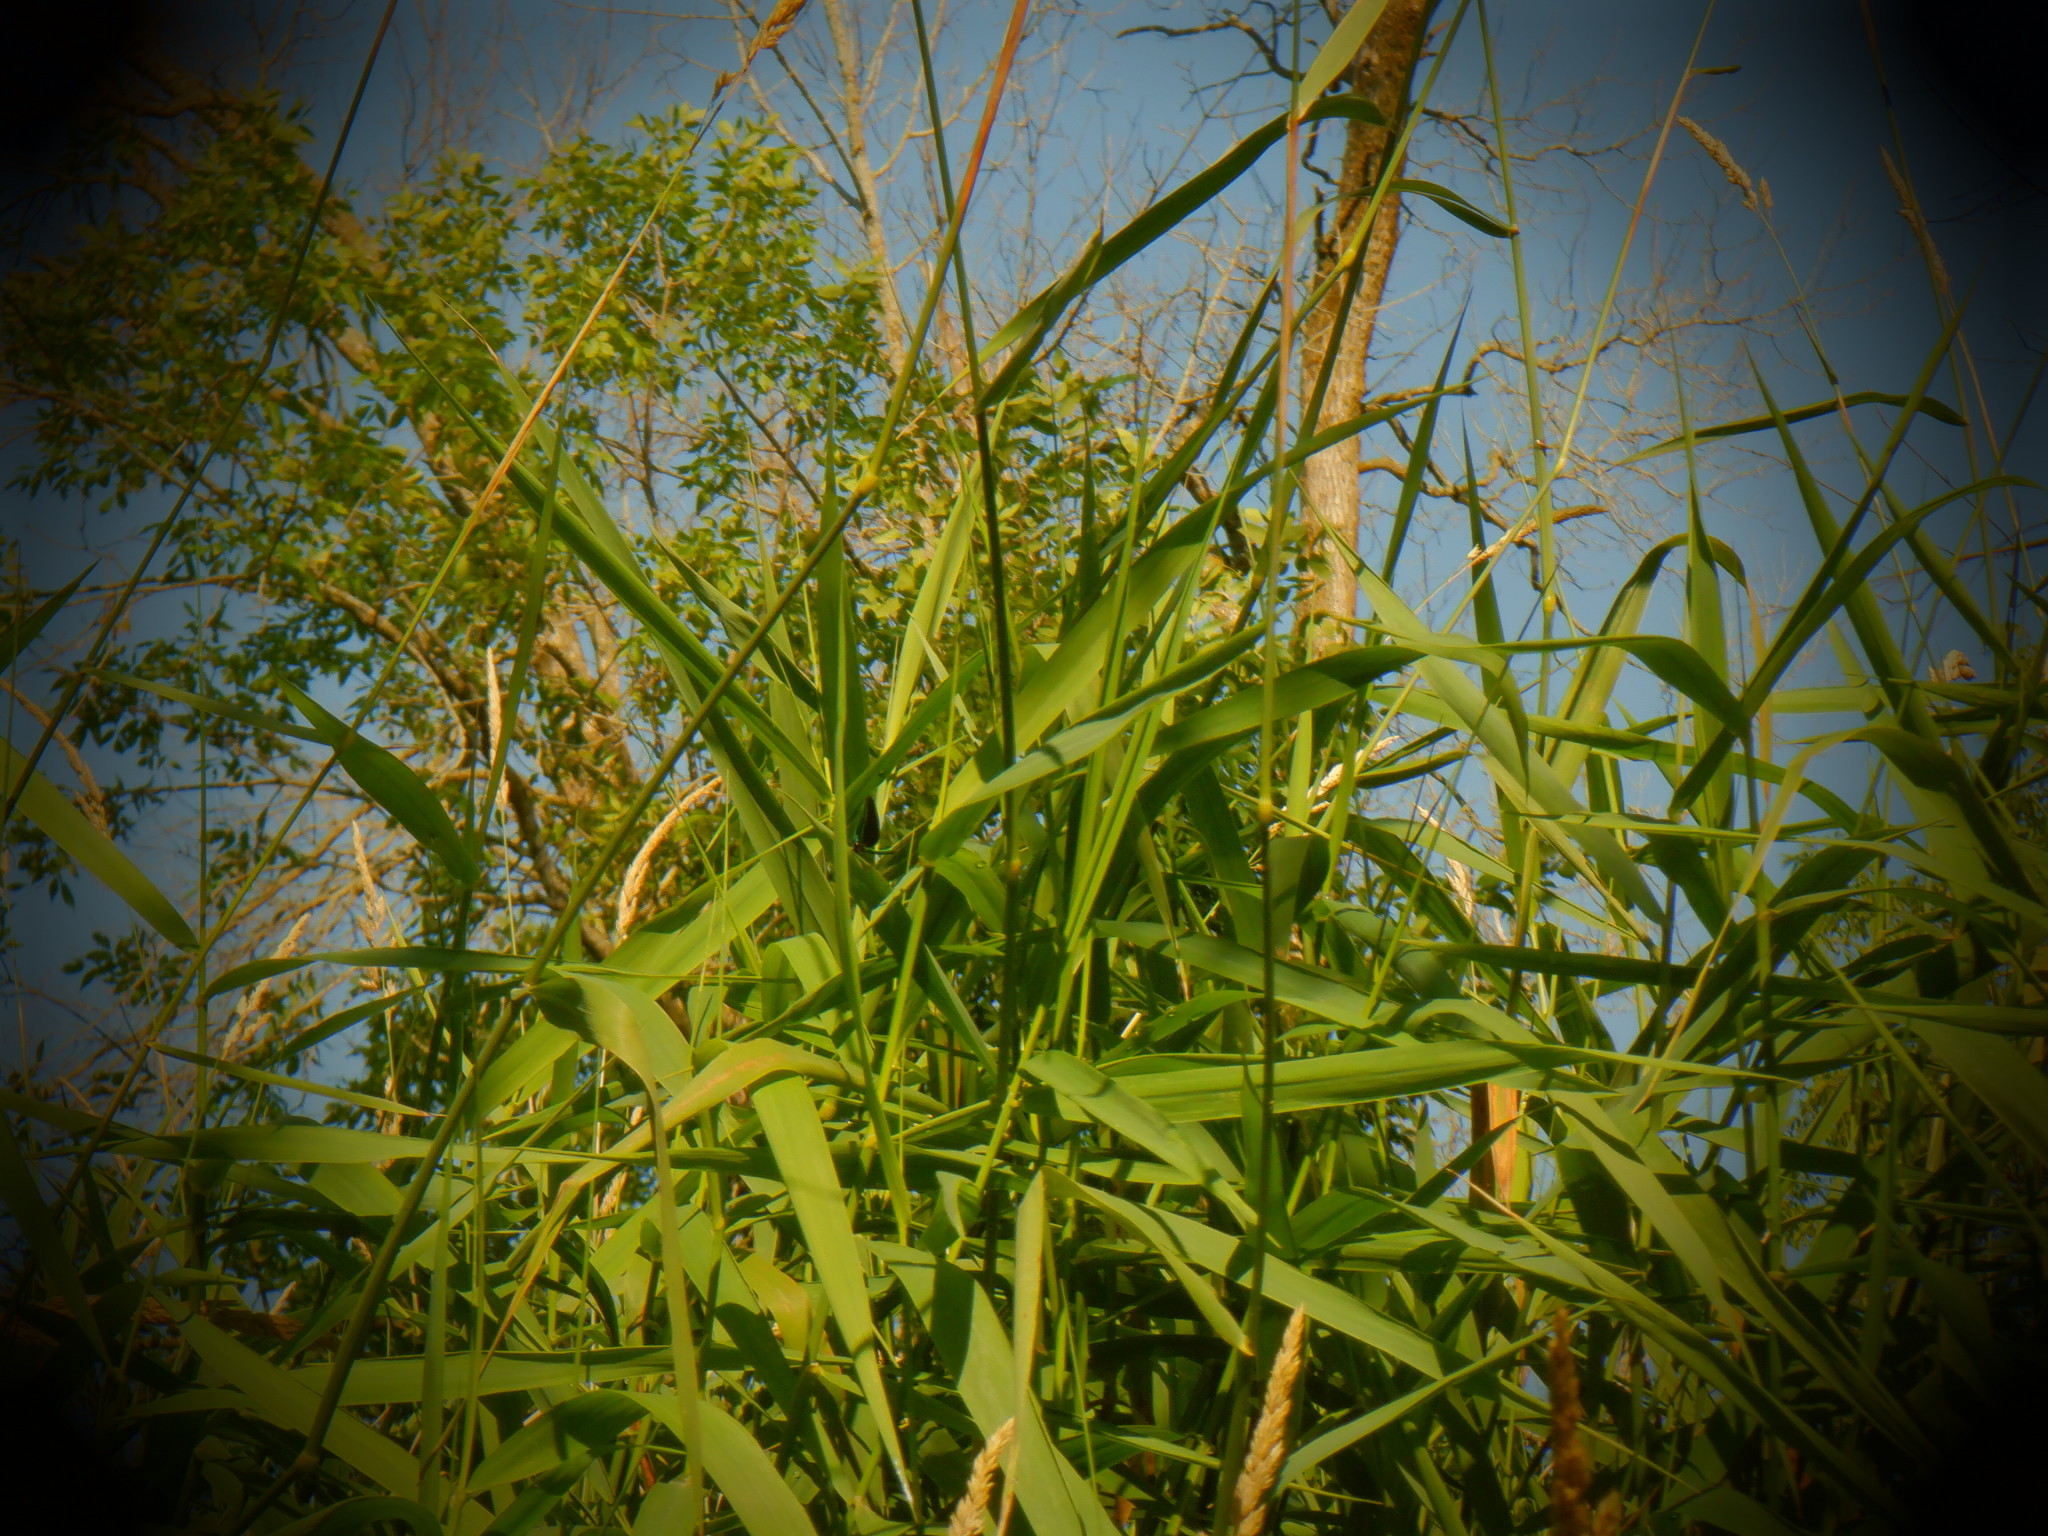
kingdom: Animalia
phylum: Arthropoda
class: Insecta
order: Odonata
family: Calopterygidae
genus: Calopteryx
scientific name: Calopteryx maculata
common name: Ebony jewelwing
